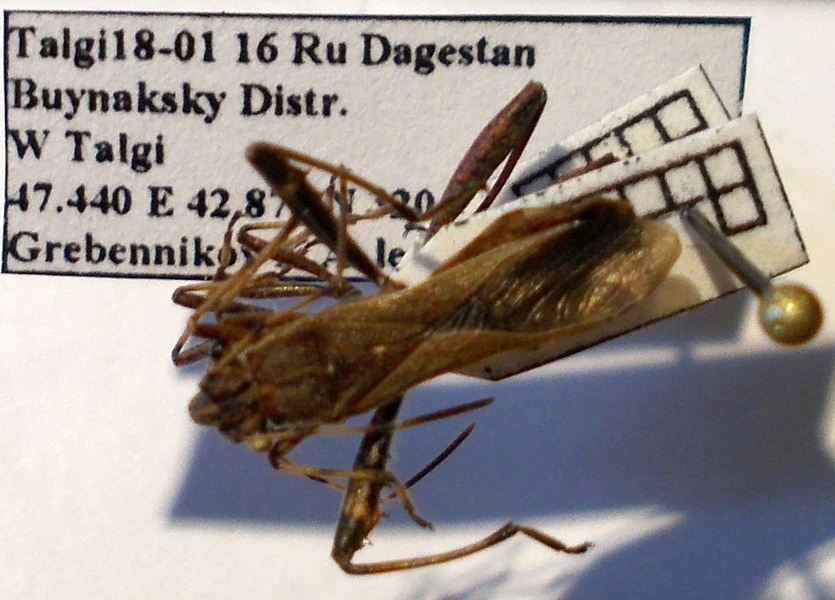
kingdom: Animalia
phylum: Arthropoda
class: Insecta
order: Hemiptera
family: Alydidae
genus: Camptopus
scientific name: Camptopus lateralis
